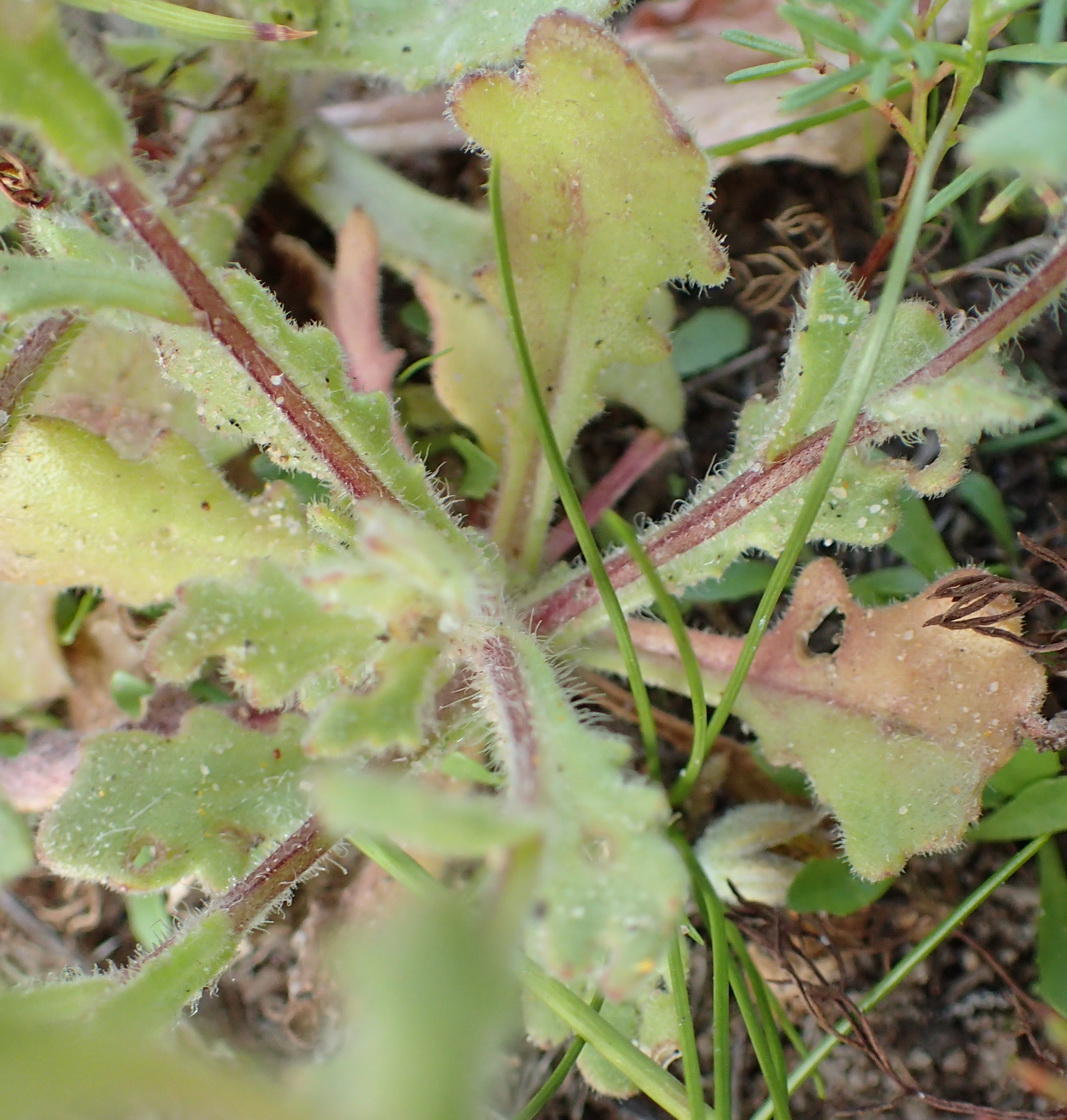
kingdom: Plantae
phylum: Tracheophyta
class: Magnoliopsida
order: Asterales
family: Asteraceae
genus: Dimorphotheca
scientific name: Dimorphotheca pluvialis
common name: Weather prophet
